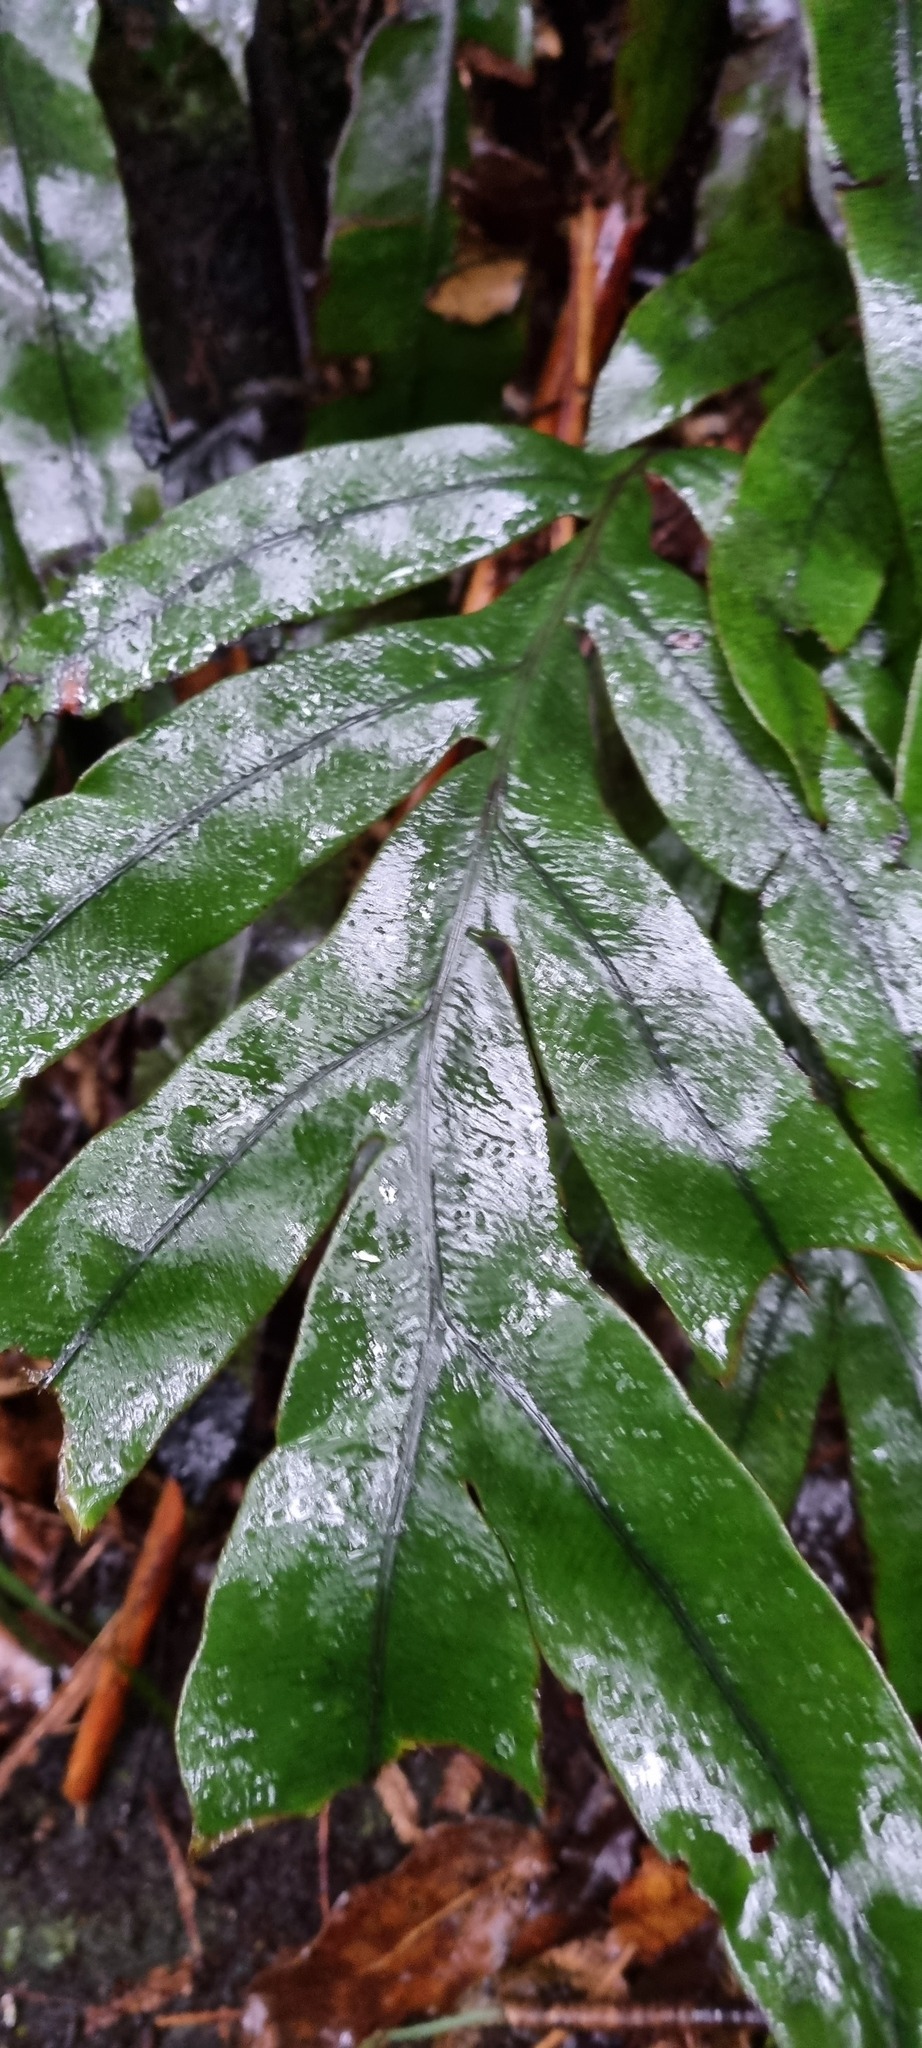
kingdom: Plantae
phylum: Tracheophyta
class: Polypodiopsida
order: Polypodiales
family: Blechnaceae
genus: Austroblechnum
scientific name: Austroblechnum colensoi
